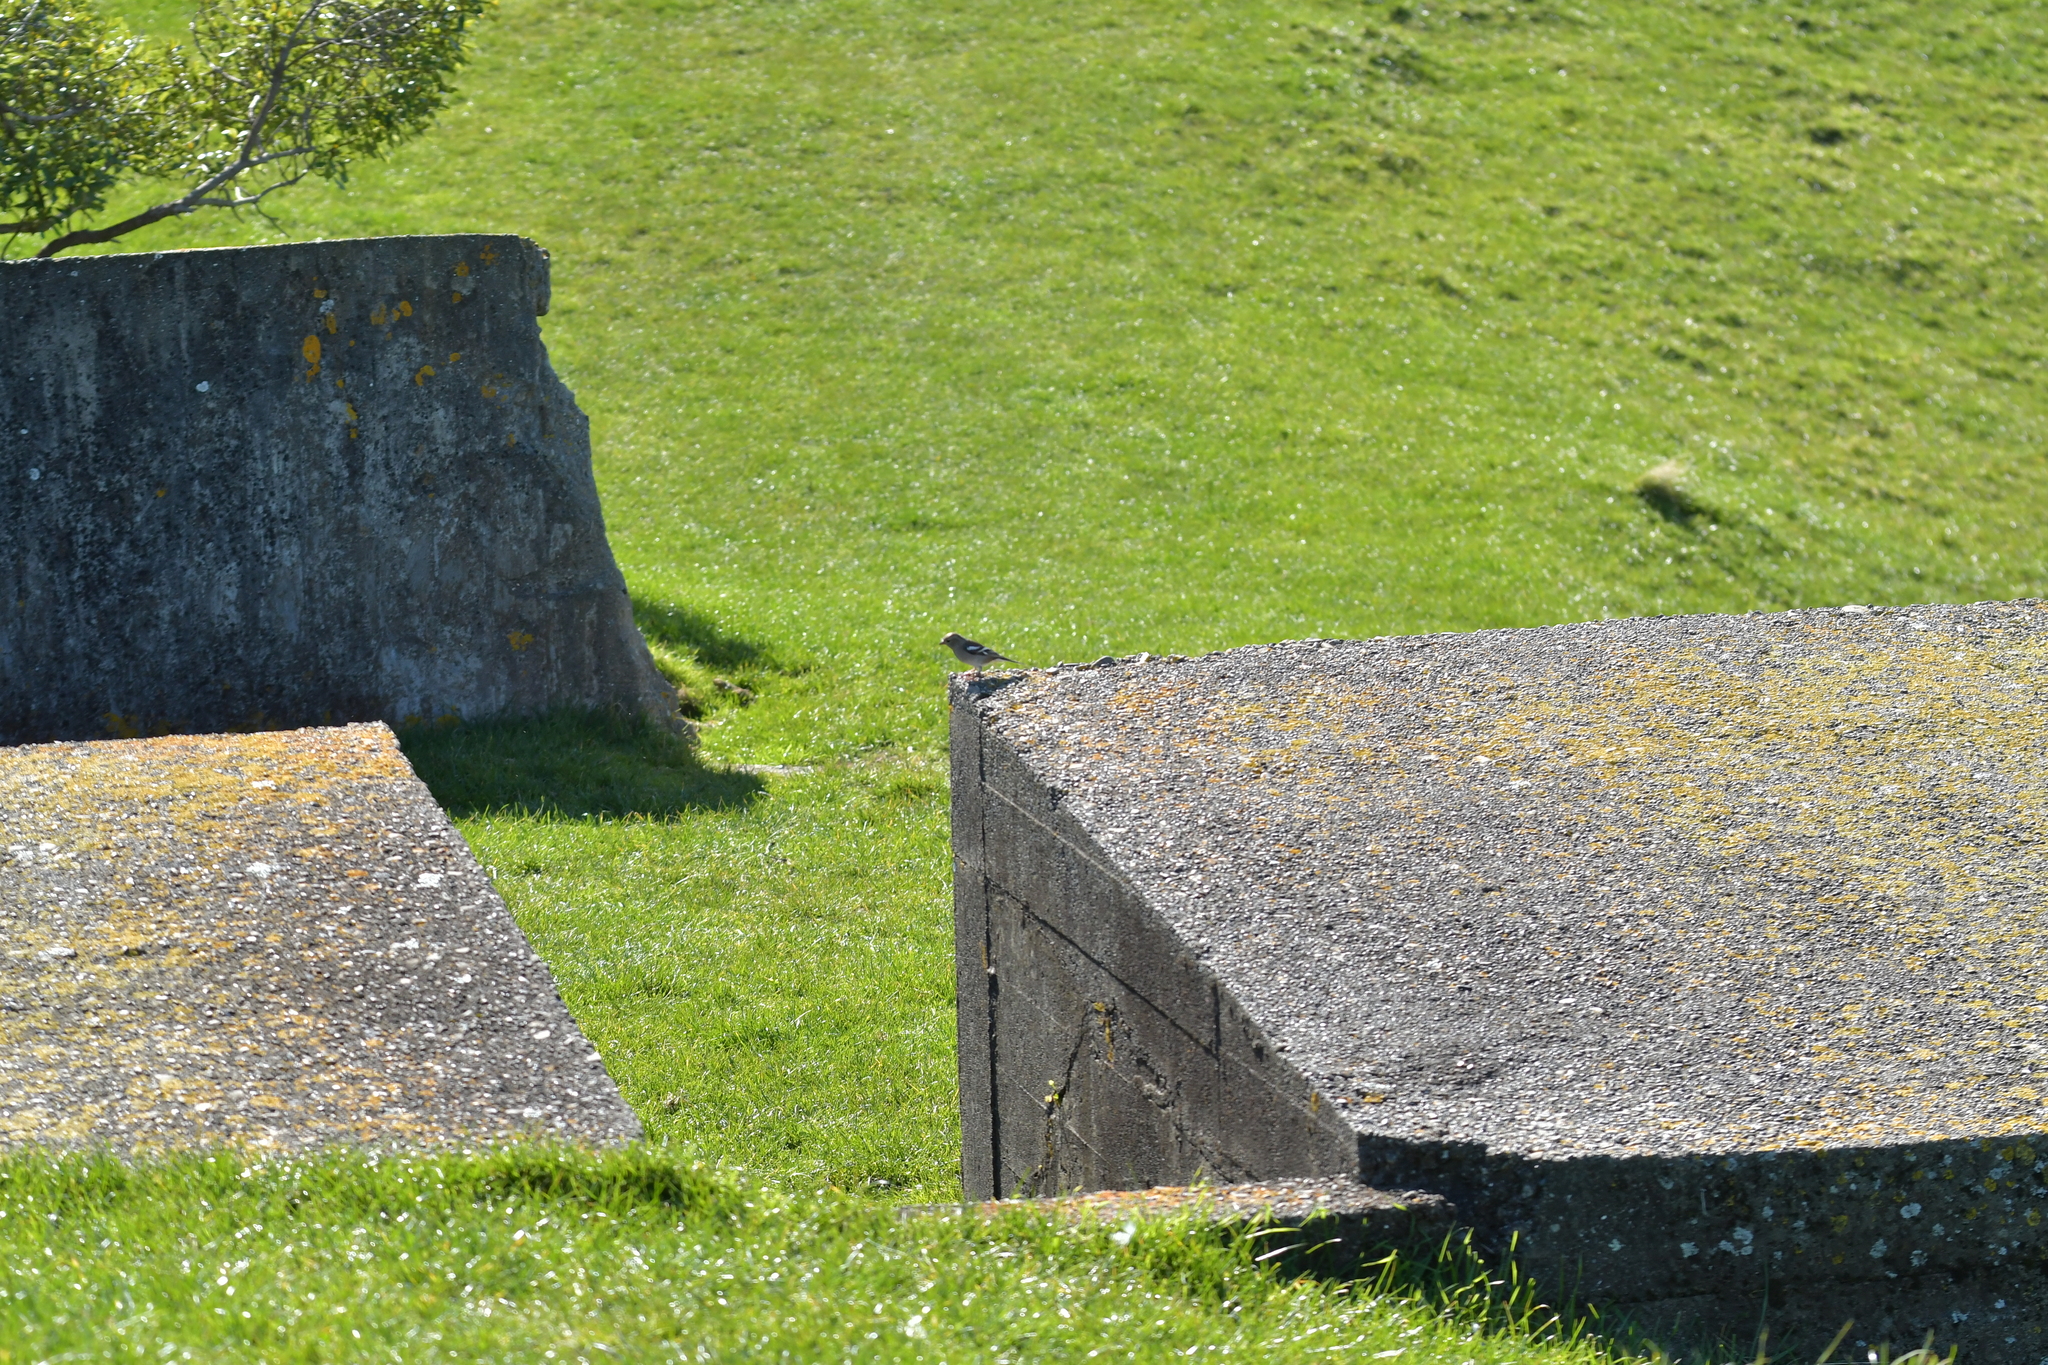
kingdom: Animalia
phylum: Chordata
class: Aves
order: Passeriformes
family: Fringillidae
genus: Fringilla
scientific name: Fringilla coelebs
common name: Common chaffinch
